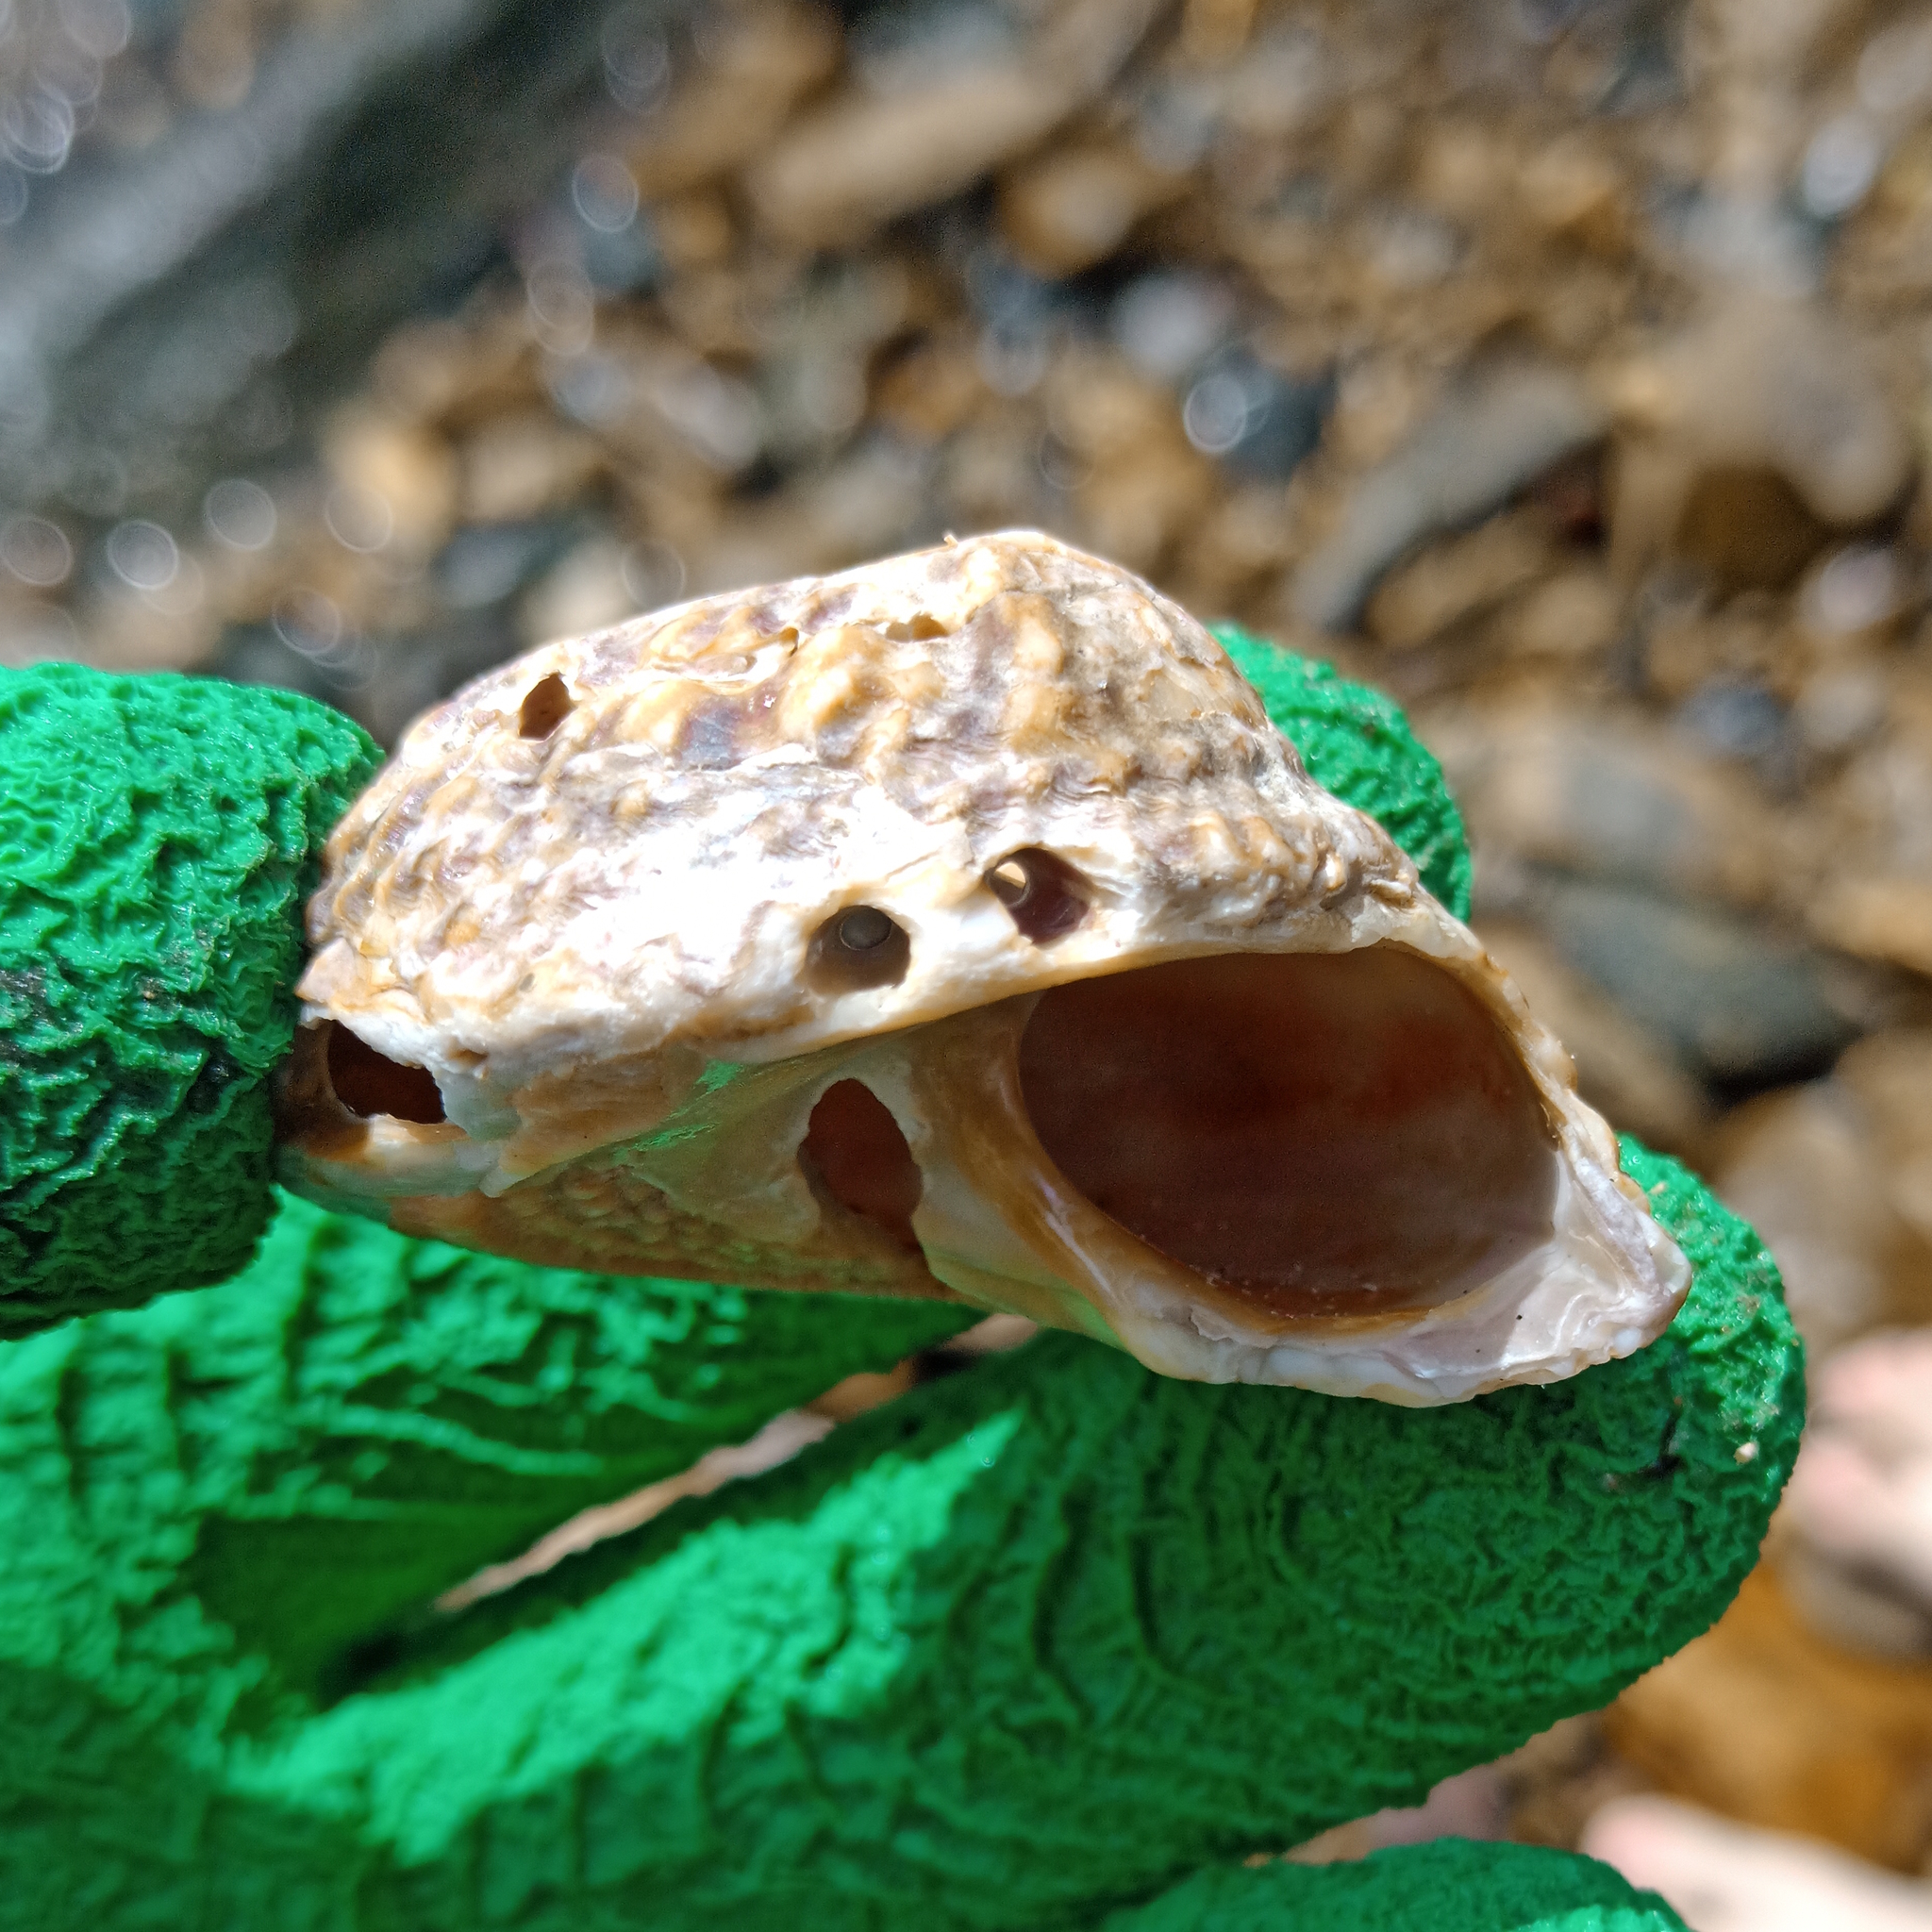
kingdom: Animalia
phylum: Mollusca
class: Gastropoda
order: Trochida
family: Turbinidae
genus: Astralium
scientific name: Astralium latispina
